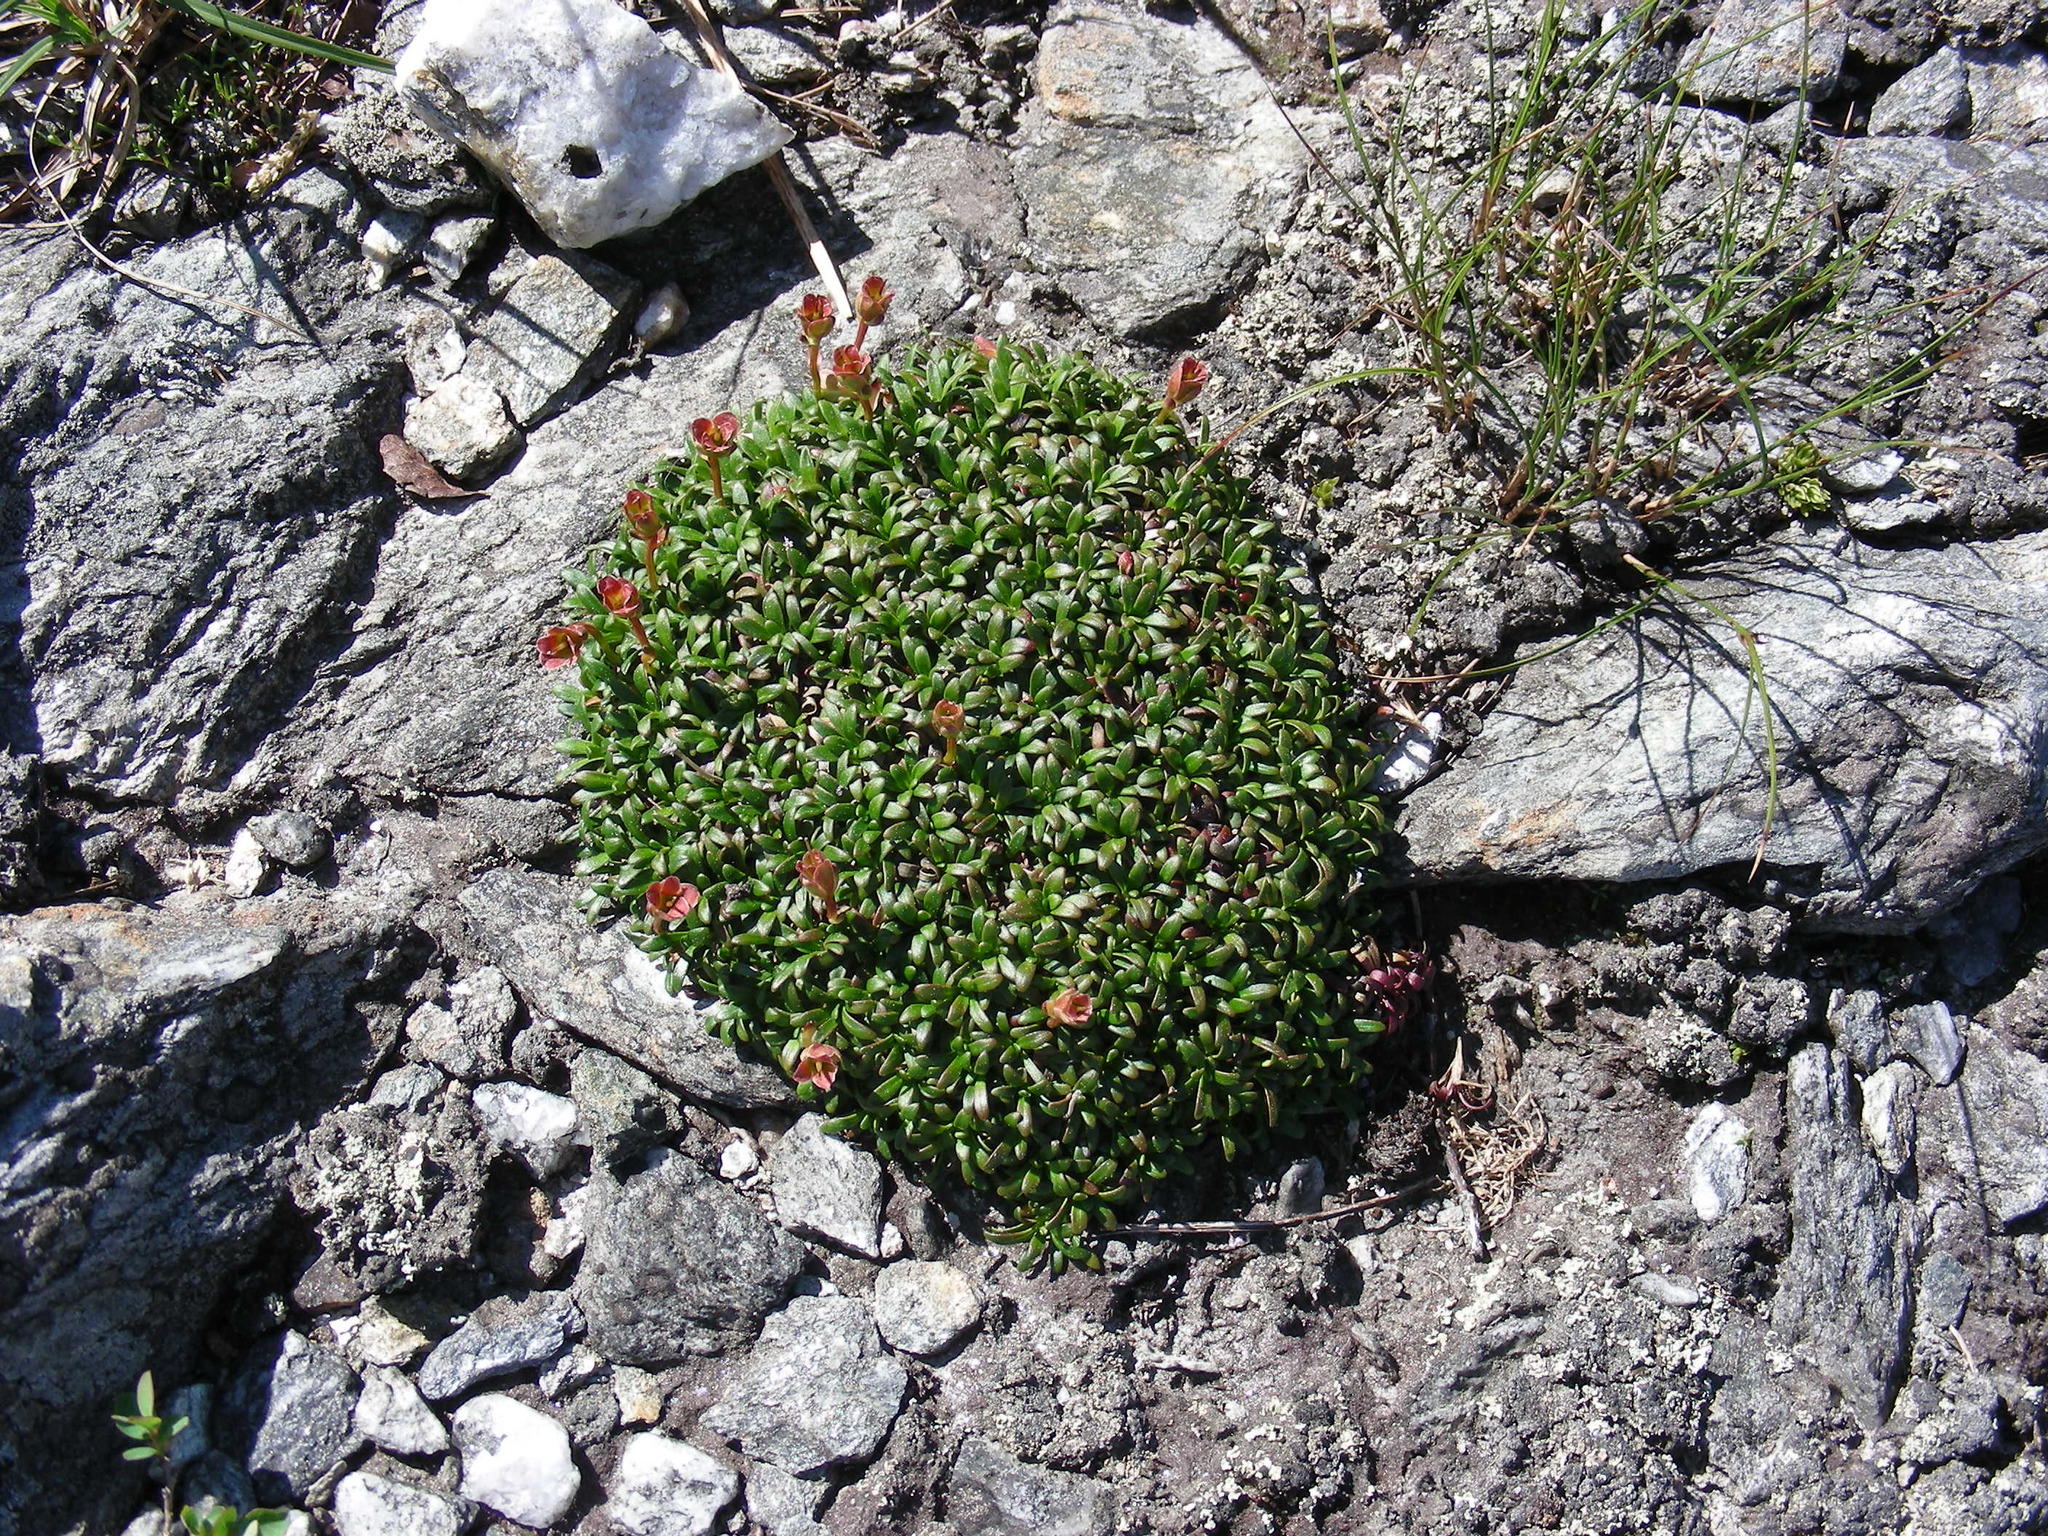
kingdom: Plantae
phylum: Tracheophyta
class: Magnoliopsida
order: Ericales
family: Diapensiaceae
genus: Diapensia
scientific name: Diapensia lapponica
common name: Diapensia
